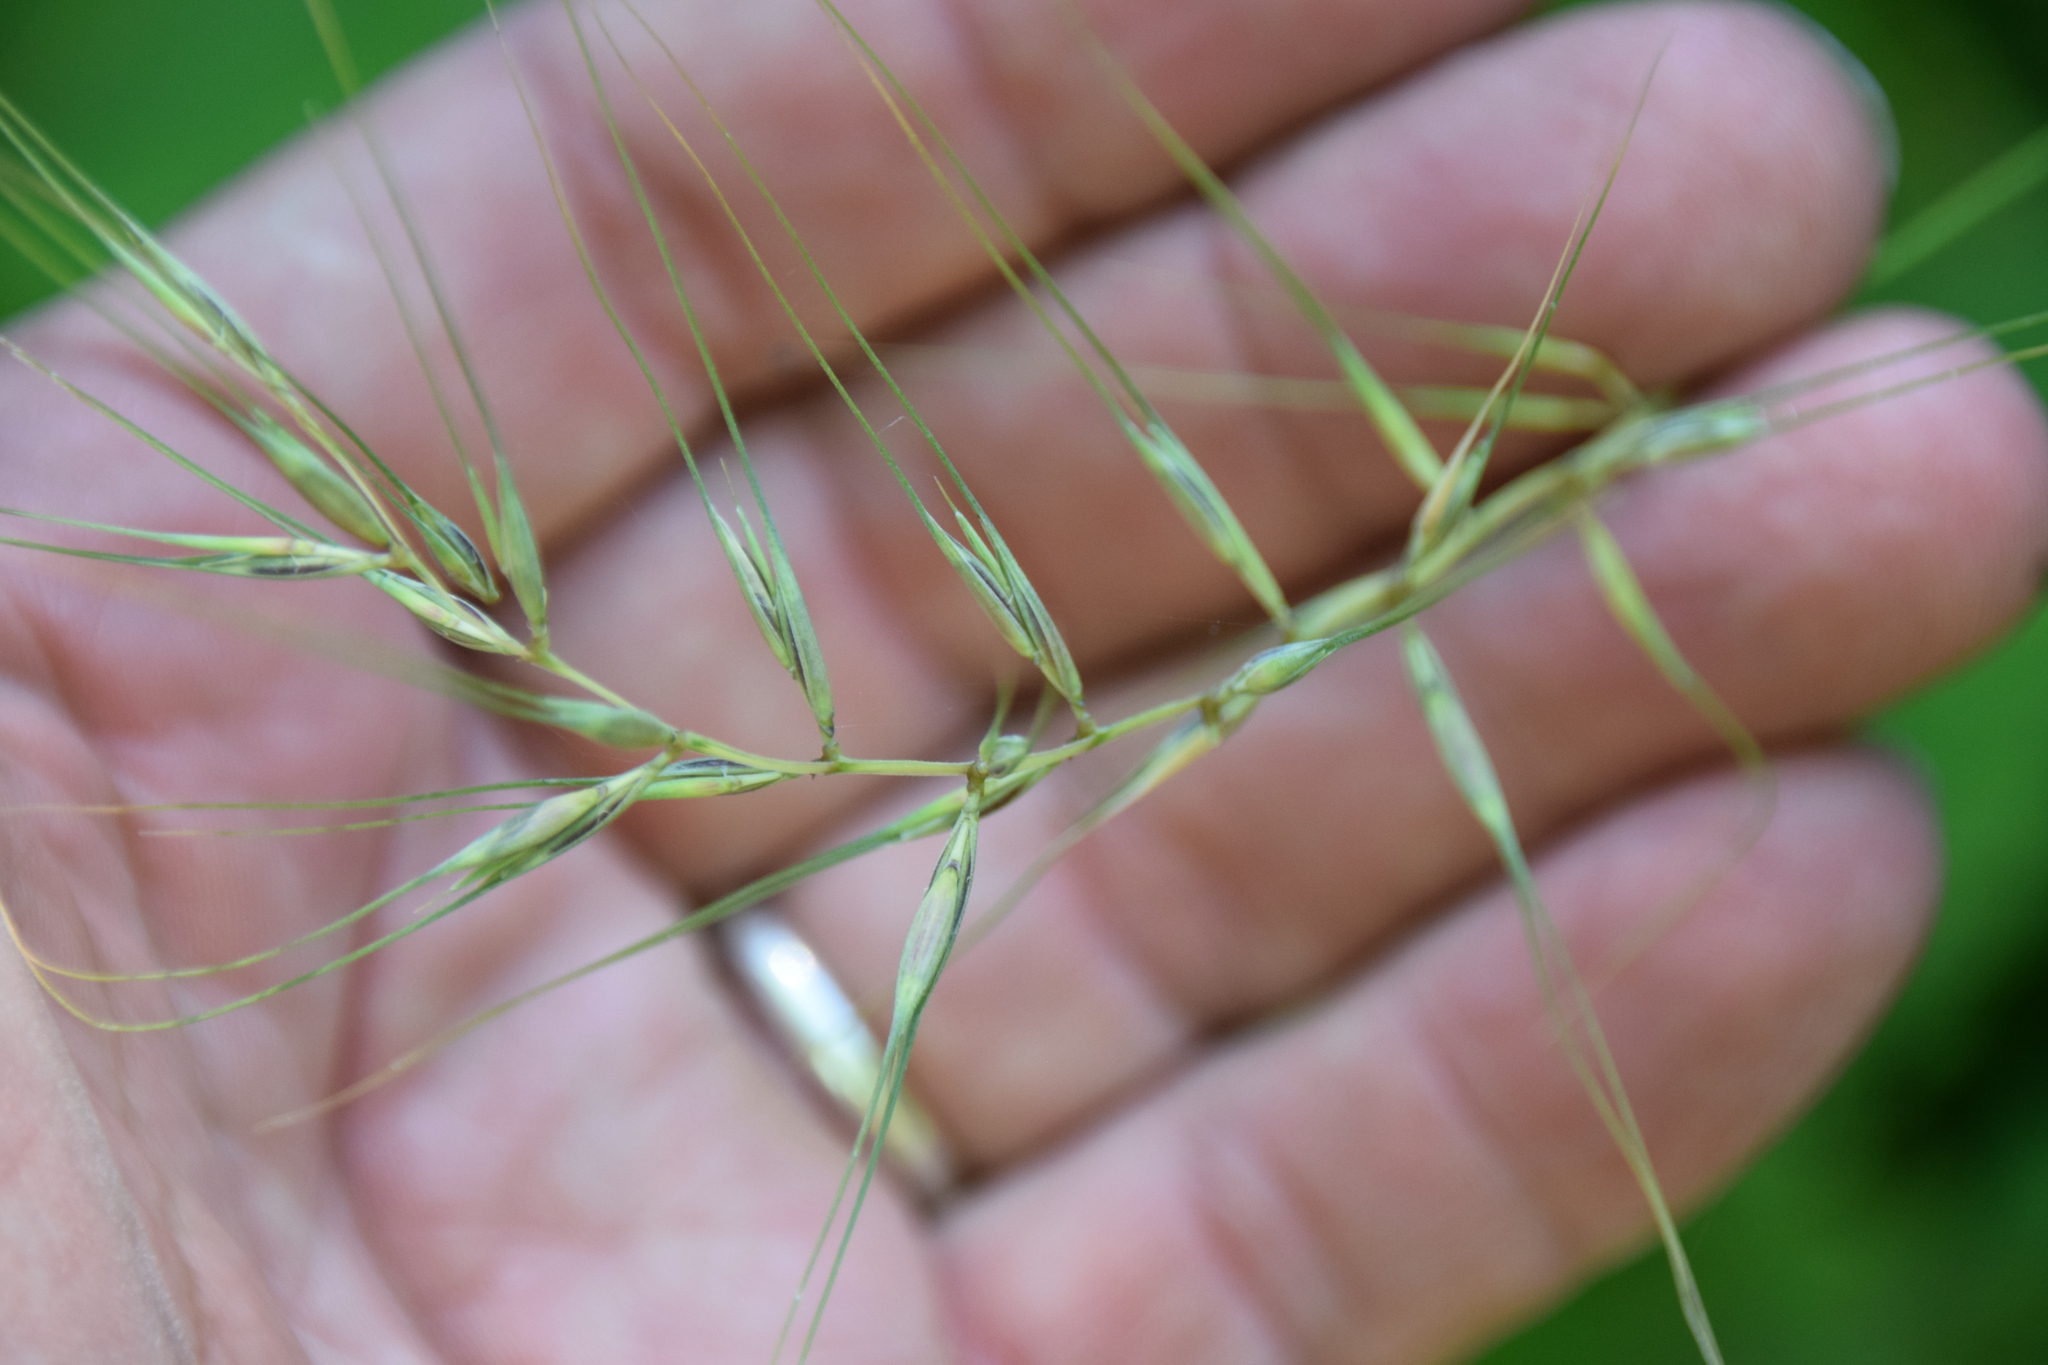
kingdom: Plantae
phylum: Tracheophyta
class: Liliopsida
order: Poales
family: Poaceae
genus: Elymus
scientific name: Elymus hystrix
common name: Bottlebrush grass
